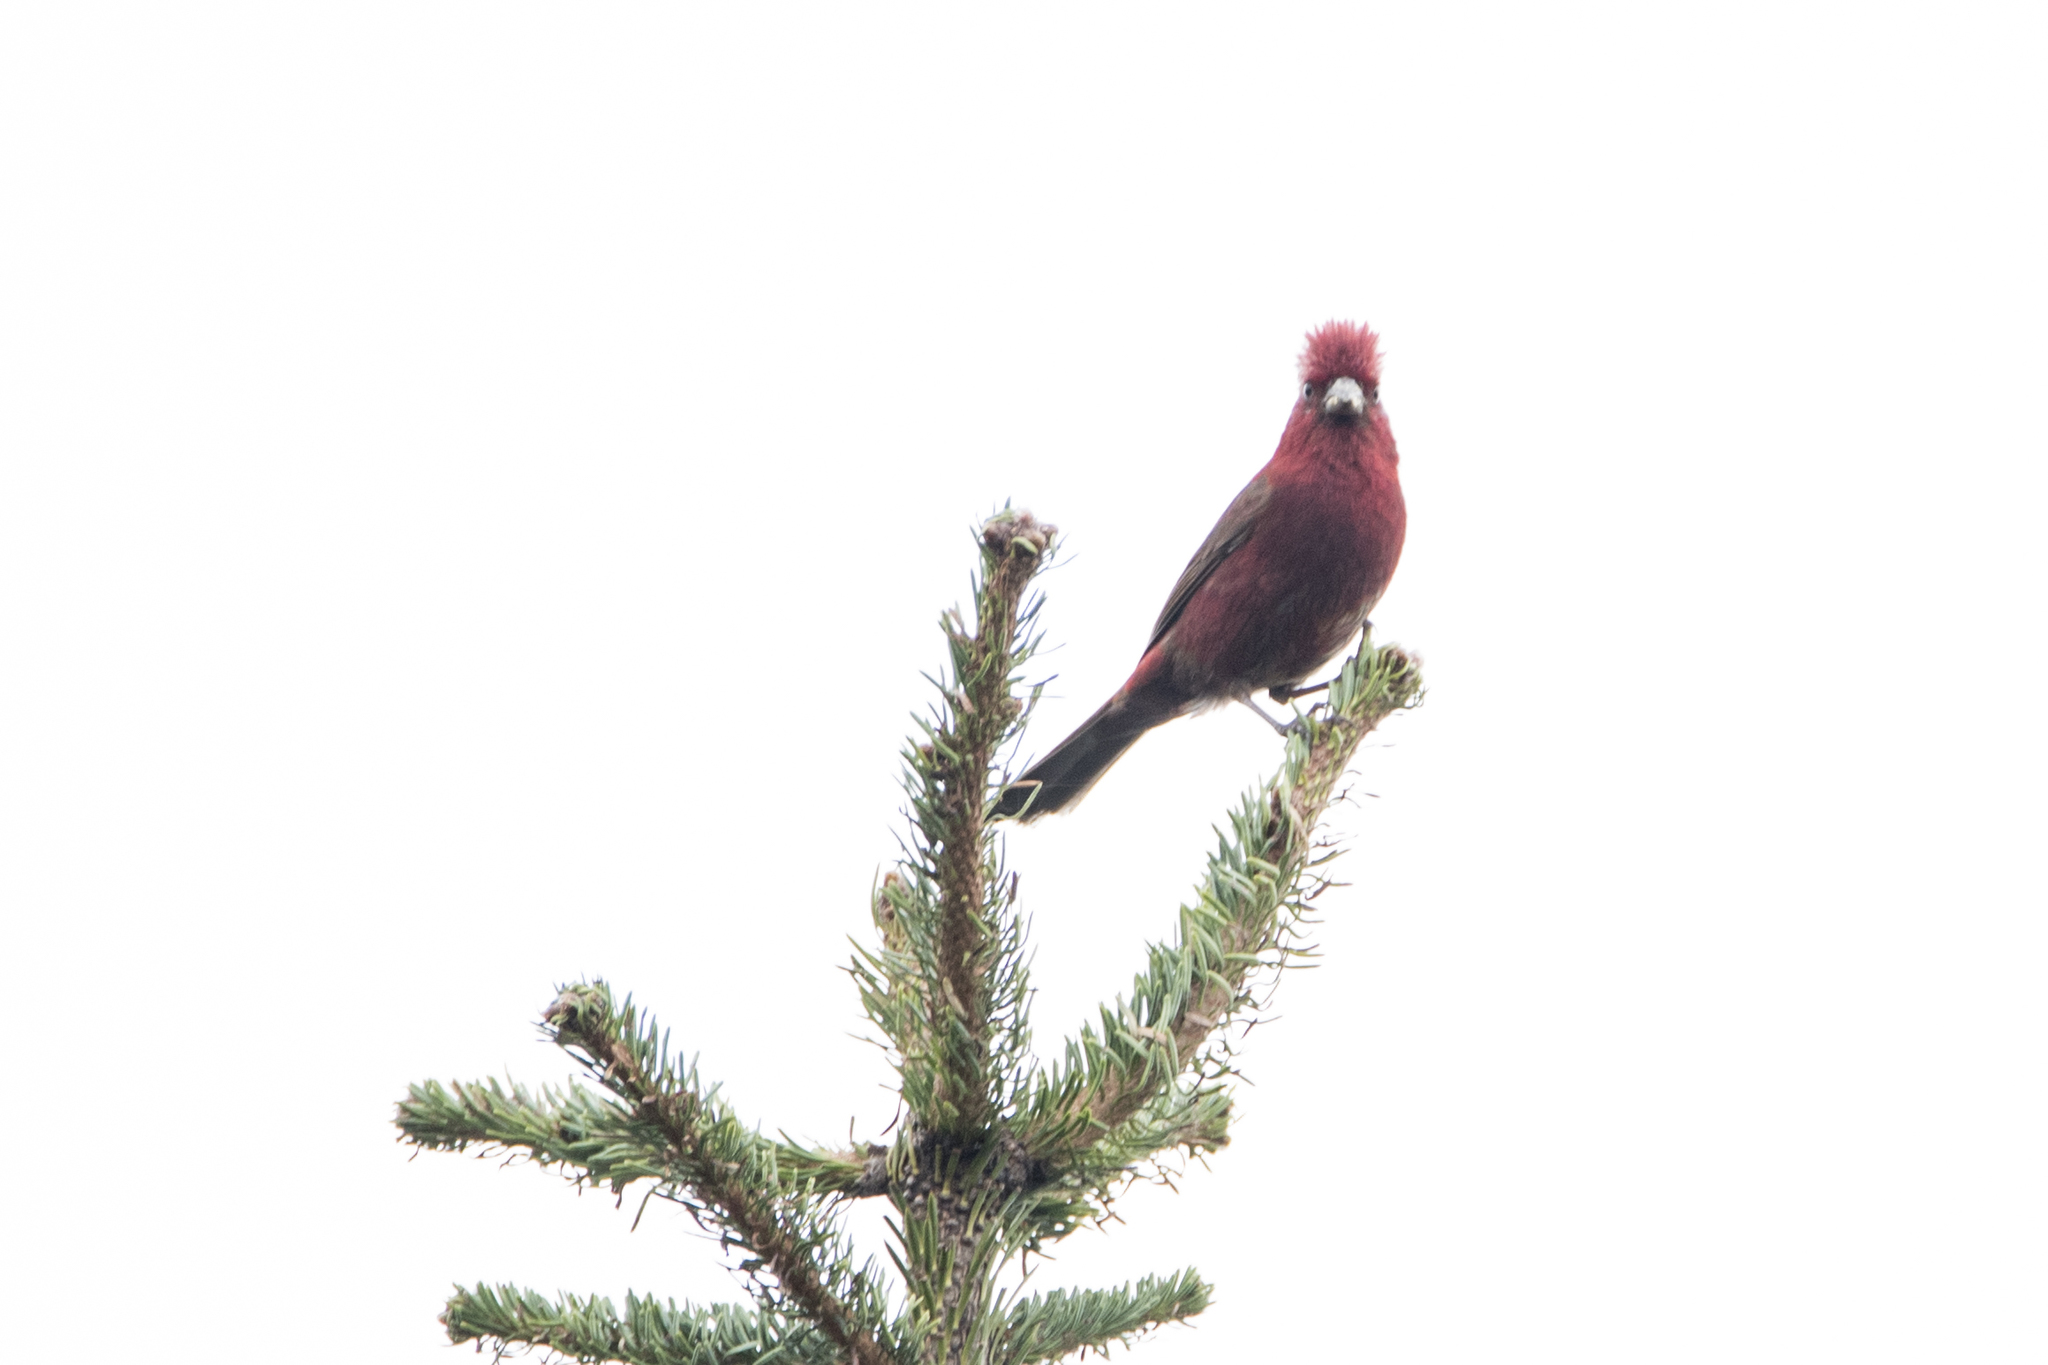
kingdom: Animalia
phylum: Chordata
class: Aves
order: Passeriformes
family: Fringillidae
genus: Carpodacus
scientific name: Carpodacus formosanus
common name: Taiwan rosefinch
